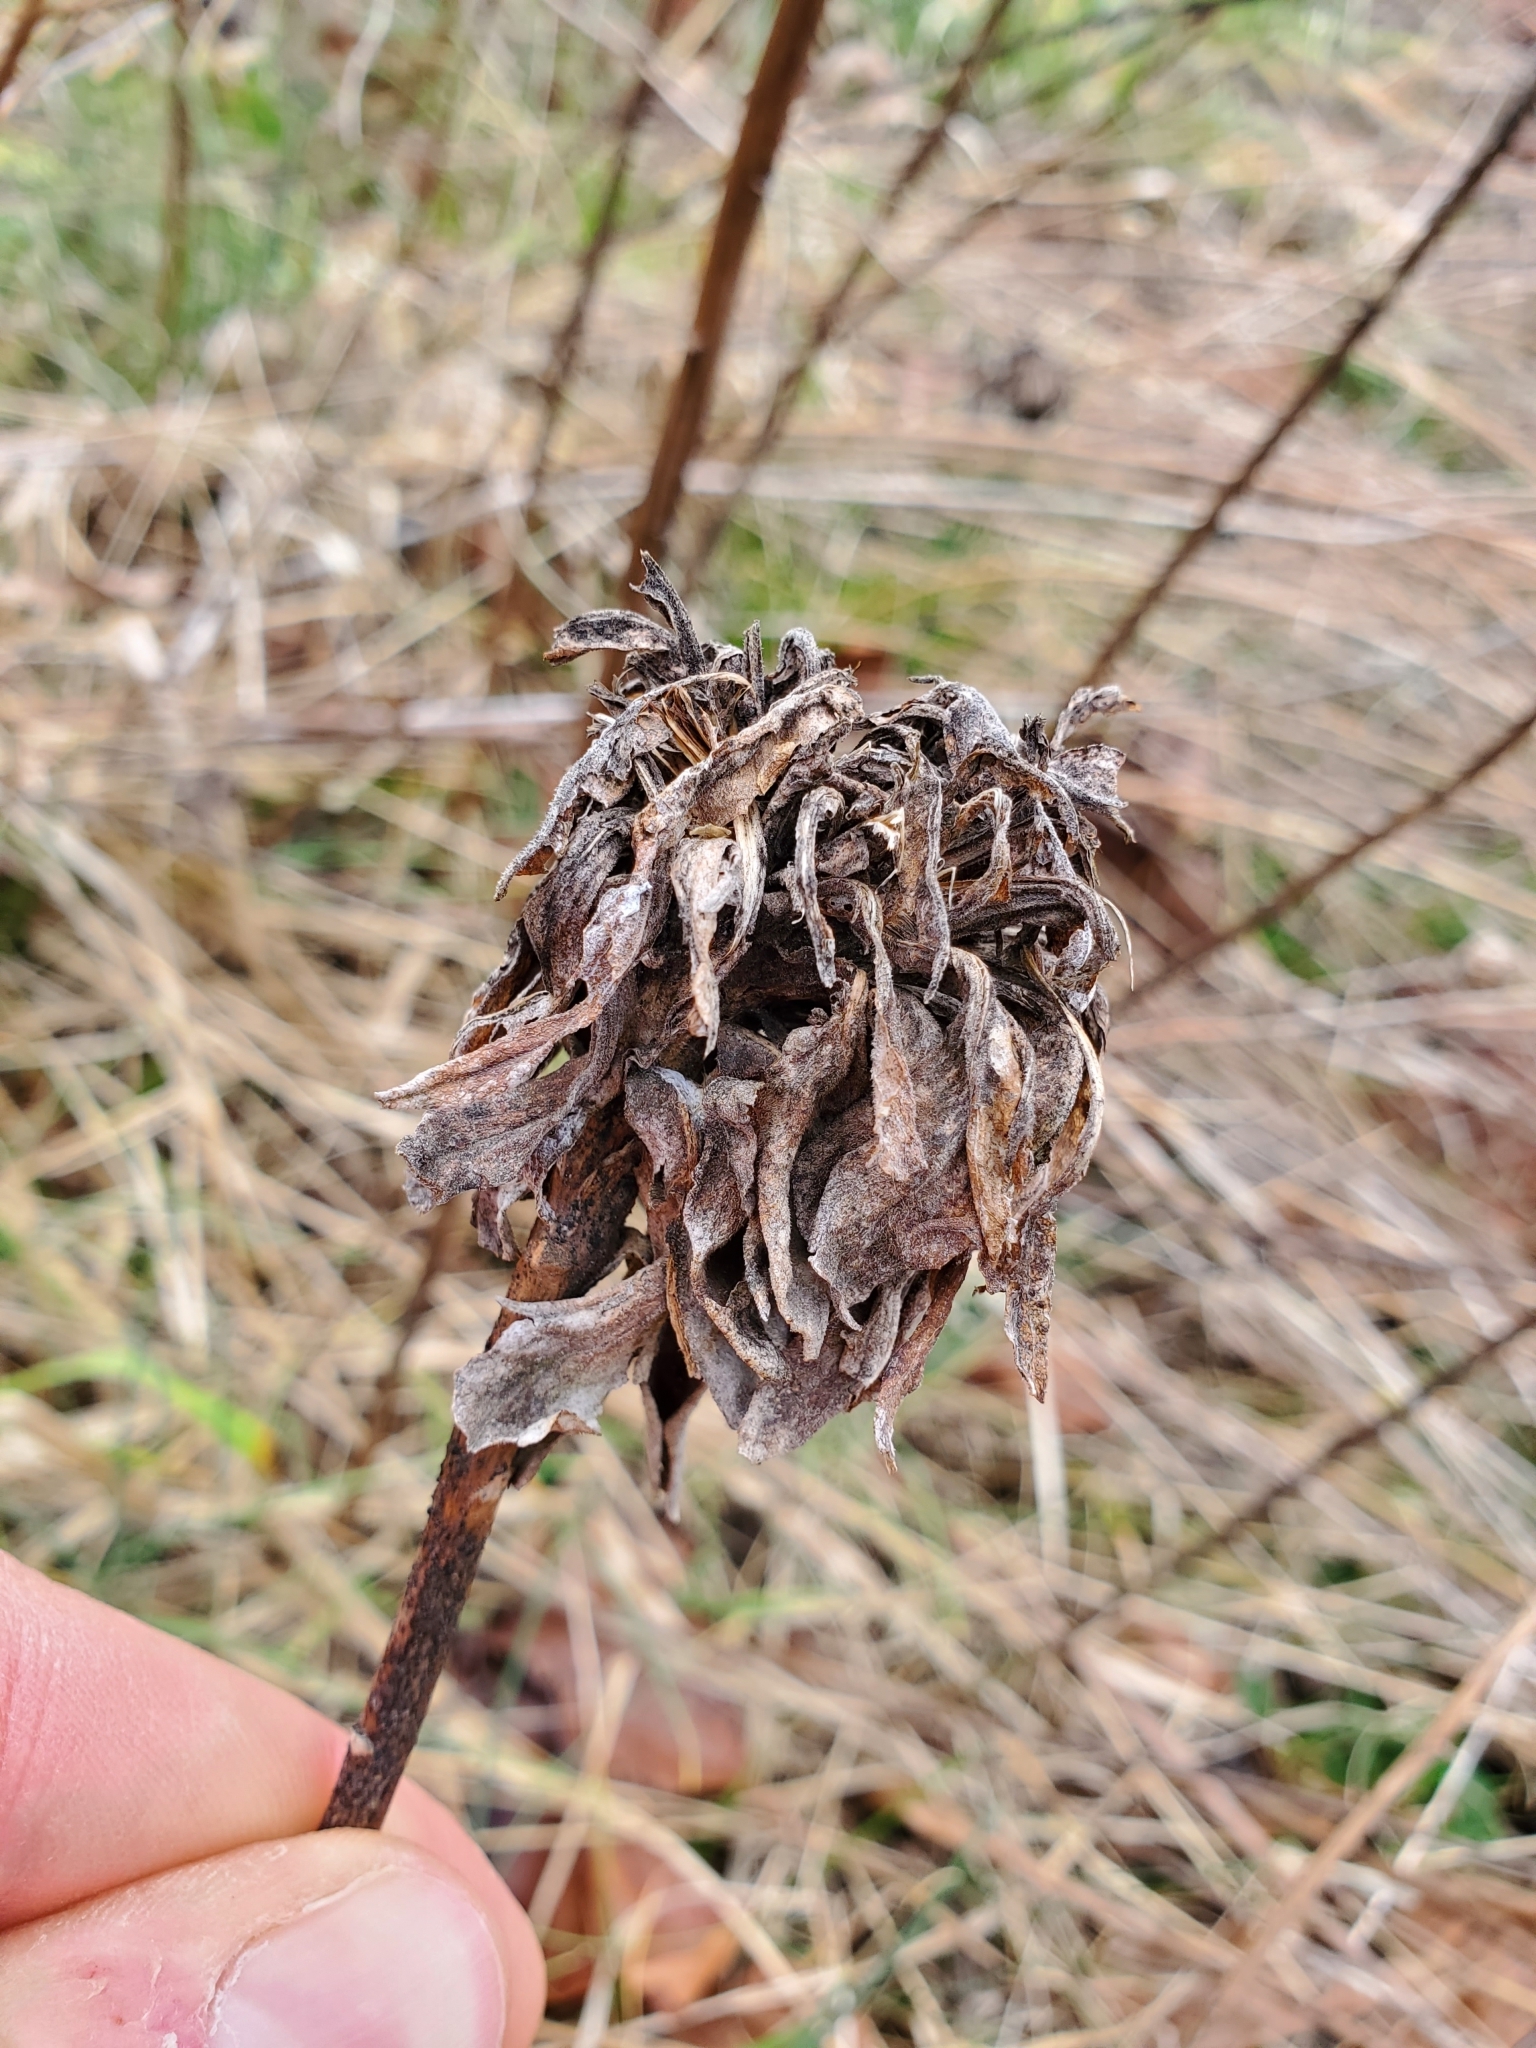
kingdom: Animalia
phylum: Arthropoda
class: Insecta
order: Diptera
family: Cecidomyiidae
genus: Rhopalomyia
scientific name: Rhopalomyia solidaginis
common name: Goldenrod bunch gall midge
